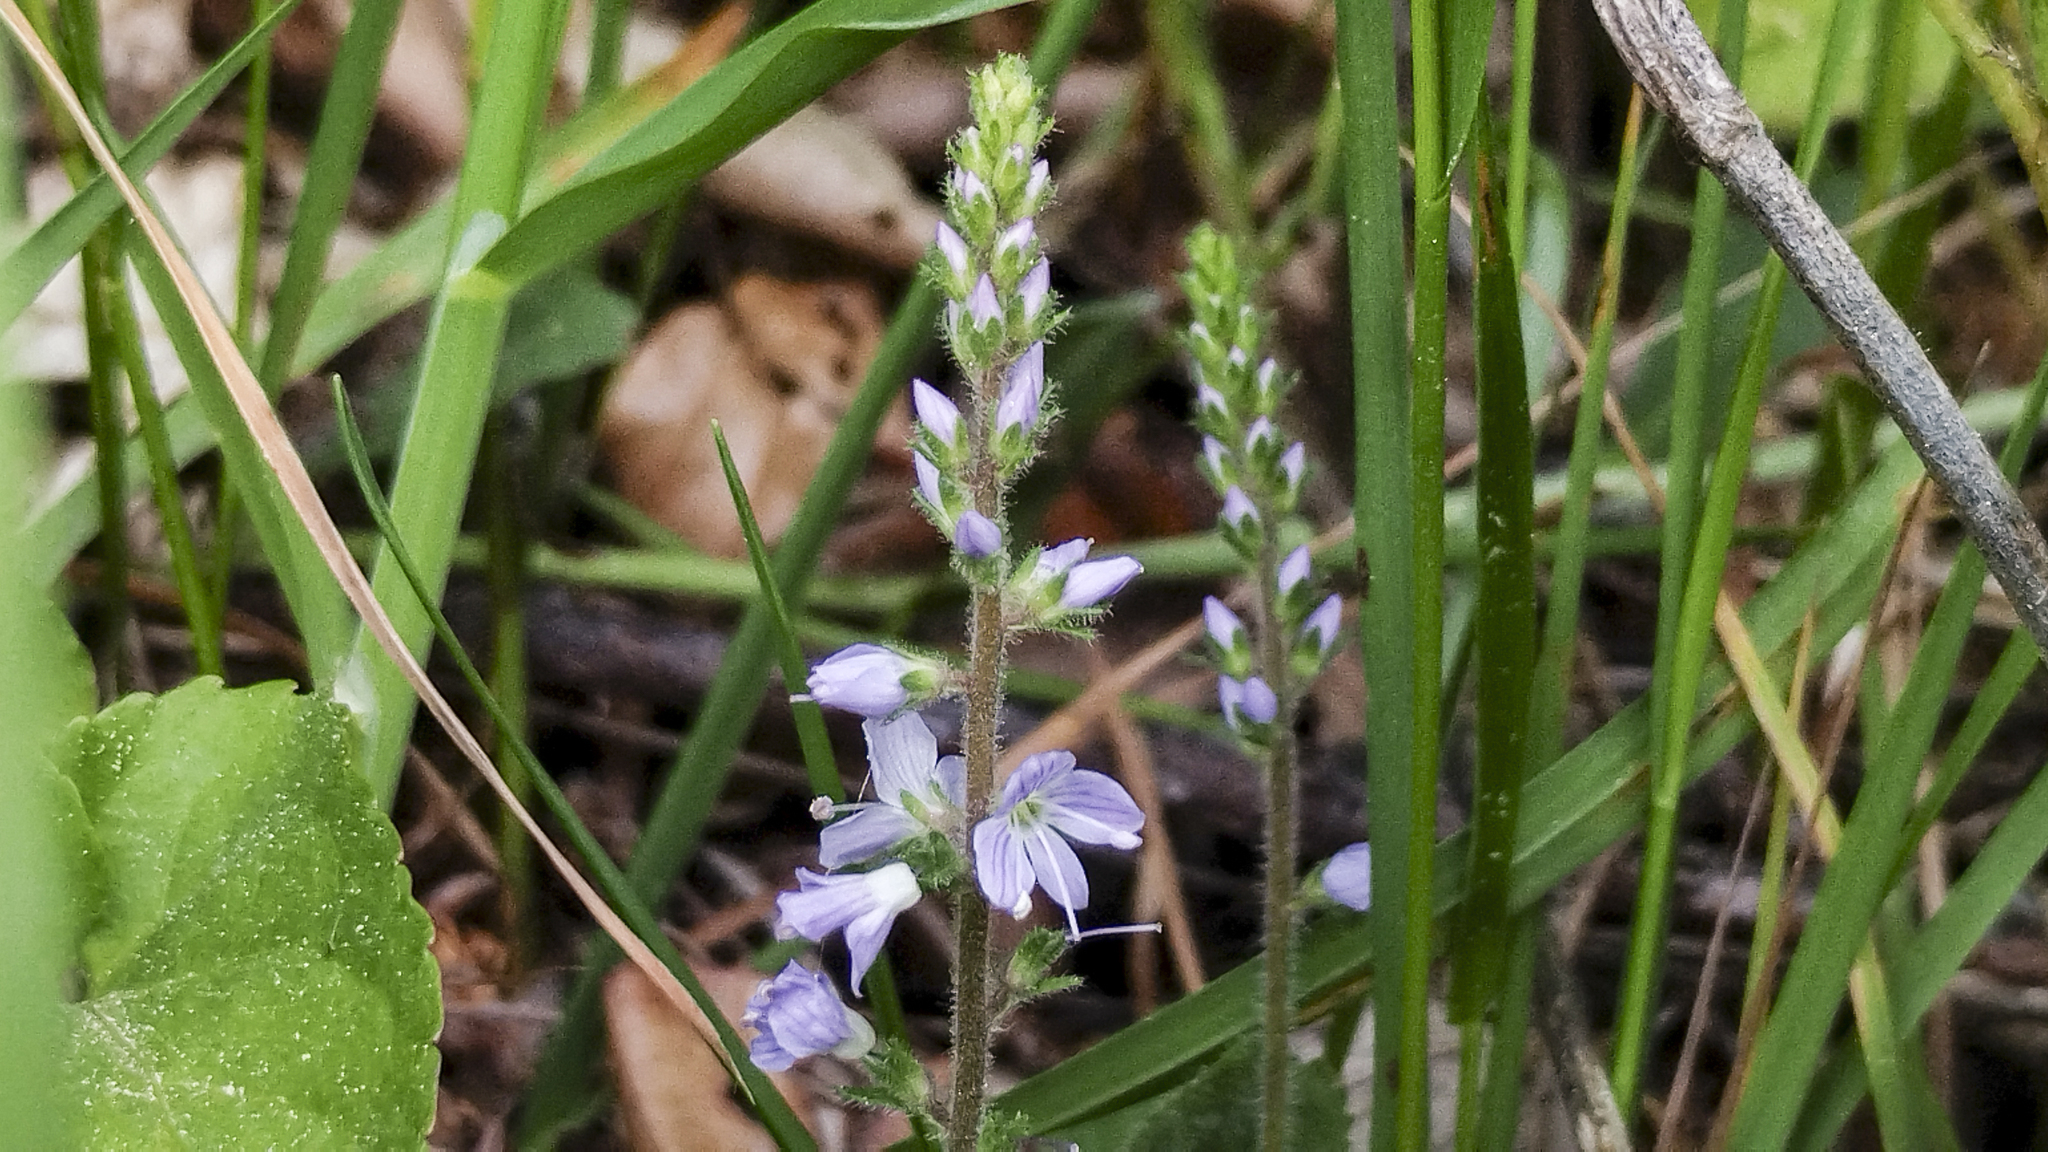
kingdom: Plantae
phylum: Tracheophyta
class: Magnoliopsida
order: Lamiales
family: Plantaginaceae
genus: Veronica
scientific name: Veronica officinalis
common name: Common speedwell
